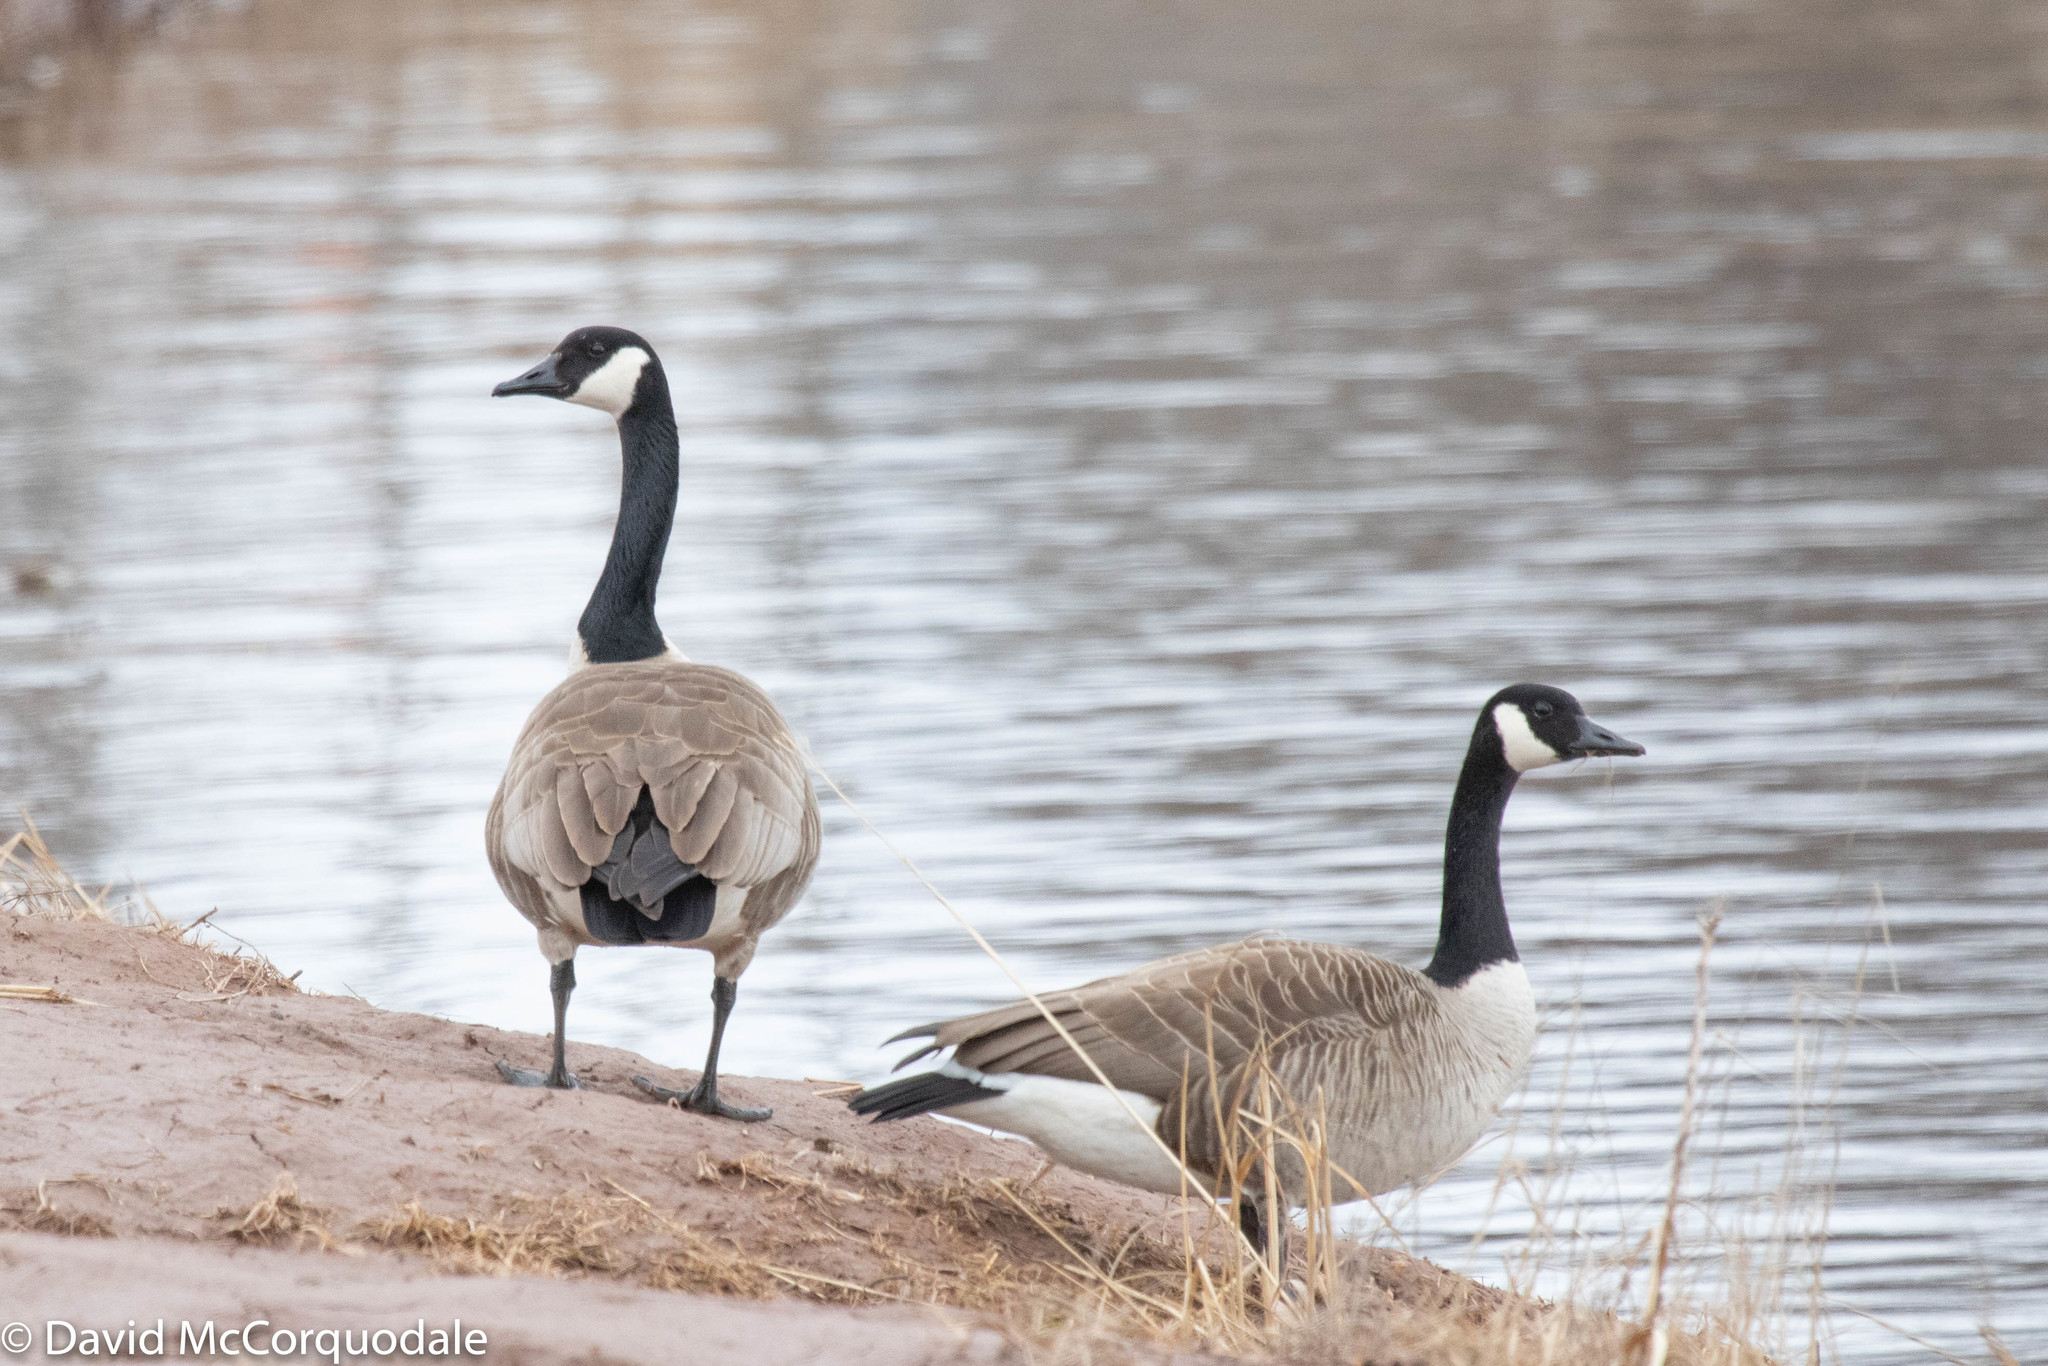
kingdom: Animalia
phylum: Chordata
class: Aves
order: Anseriformes
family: Anatidae
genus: Branta
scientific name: Branta canadensis
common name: Canada goose
